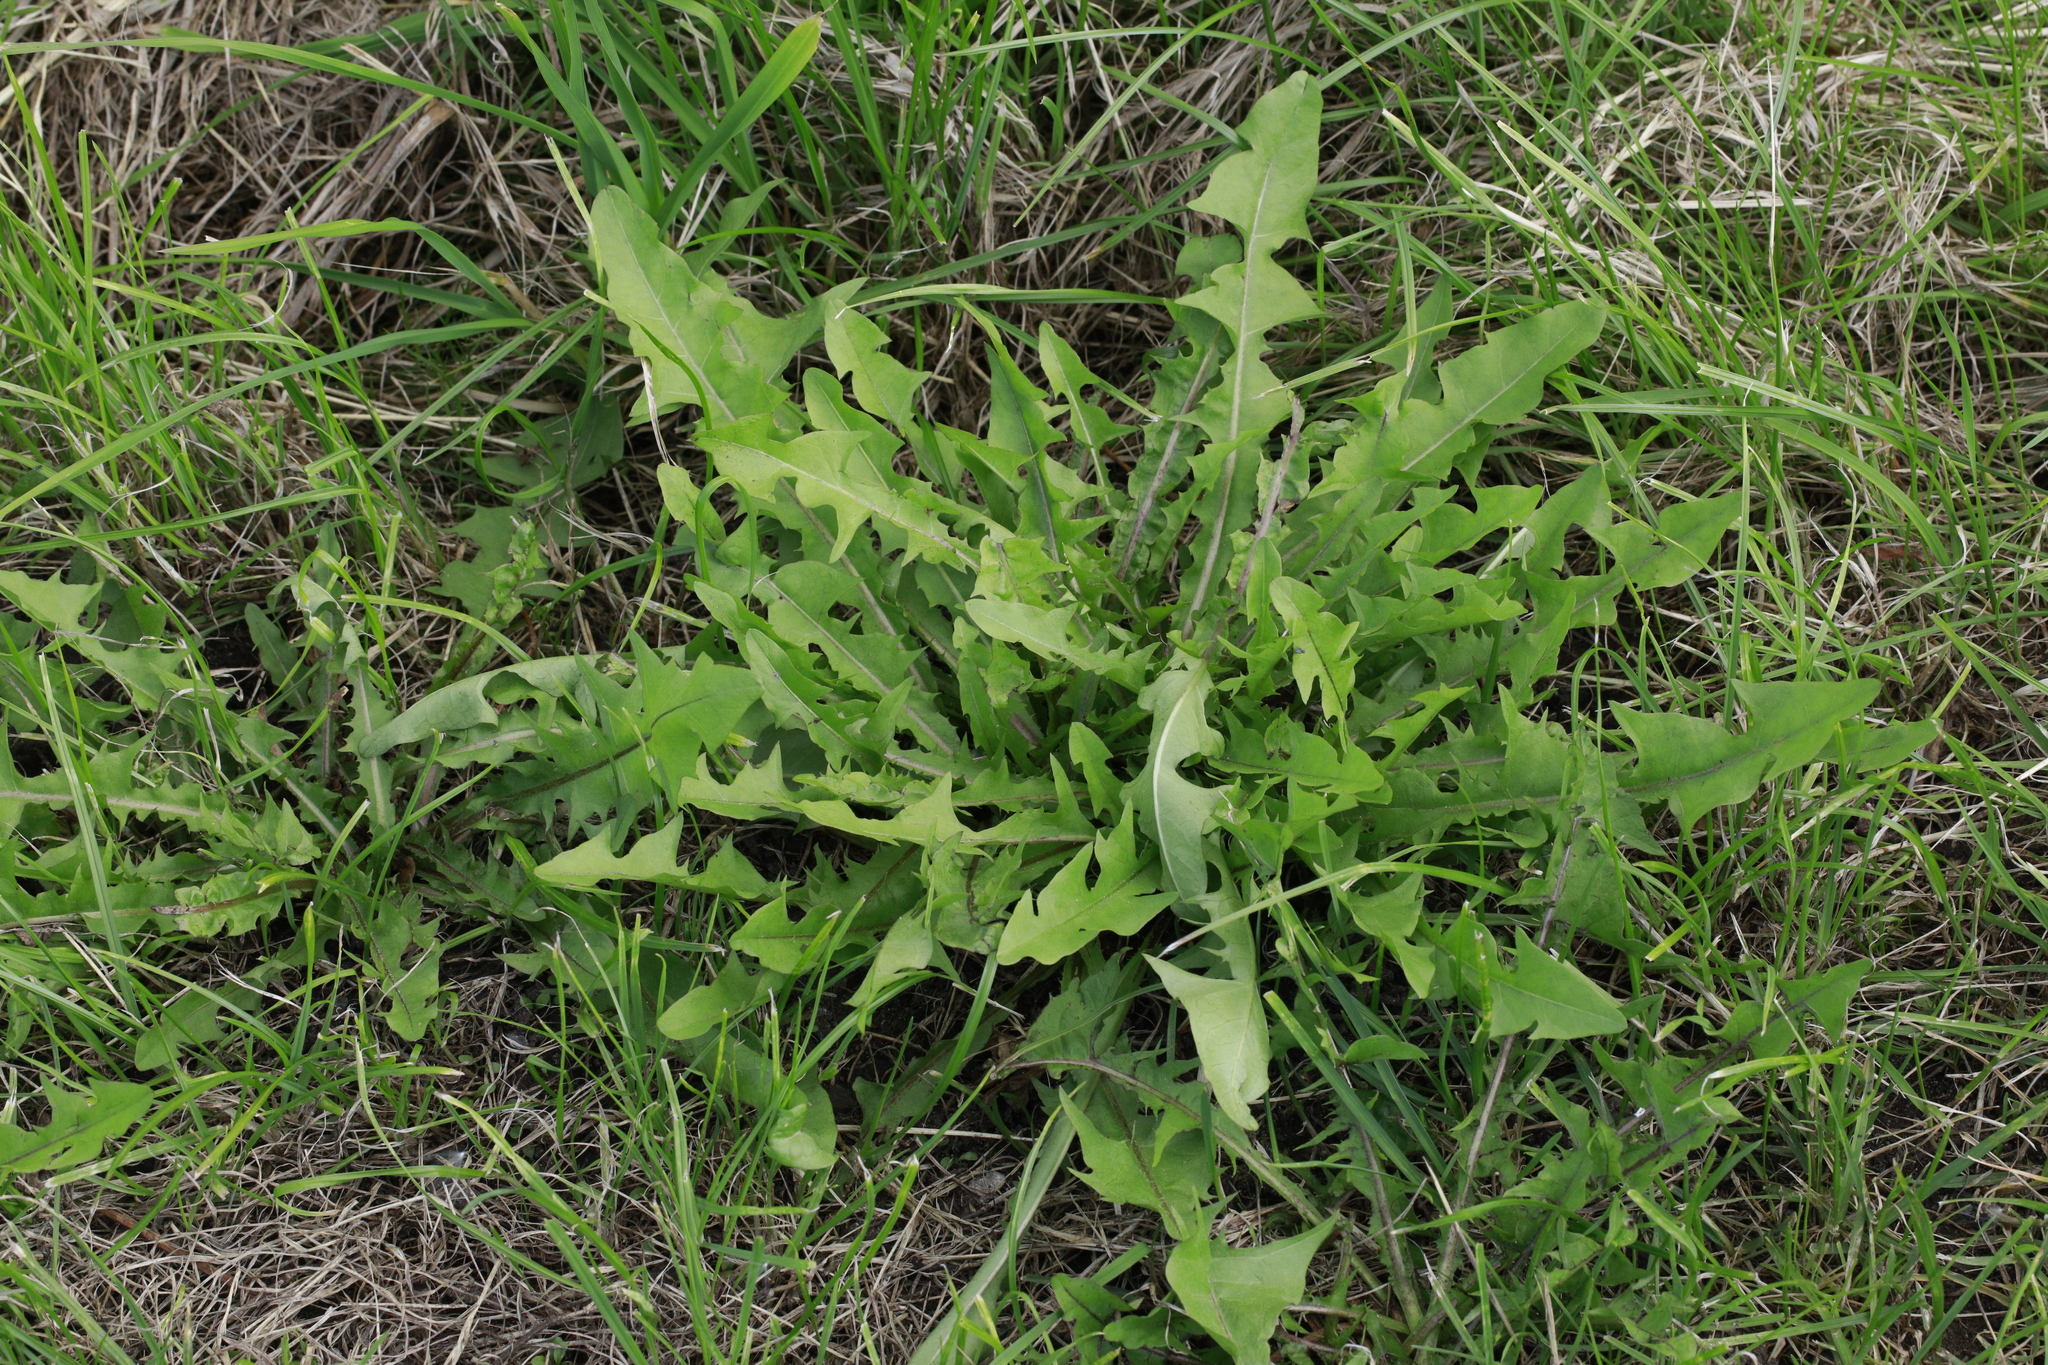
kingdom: Plantae
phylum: Tracheophyta
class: Magnoliopsida
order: Asterales
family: Asteraceae
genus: Taraxacum
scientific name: Taraxacum officinale
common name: Common dandelion
